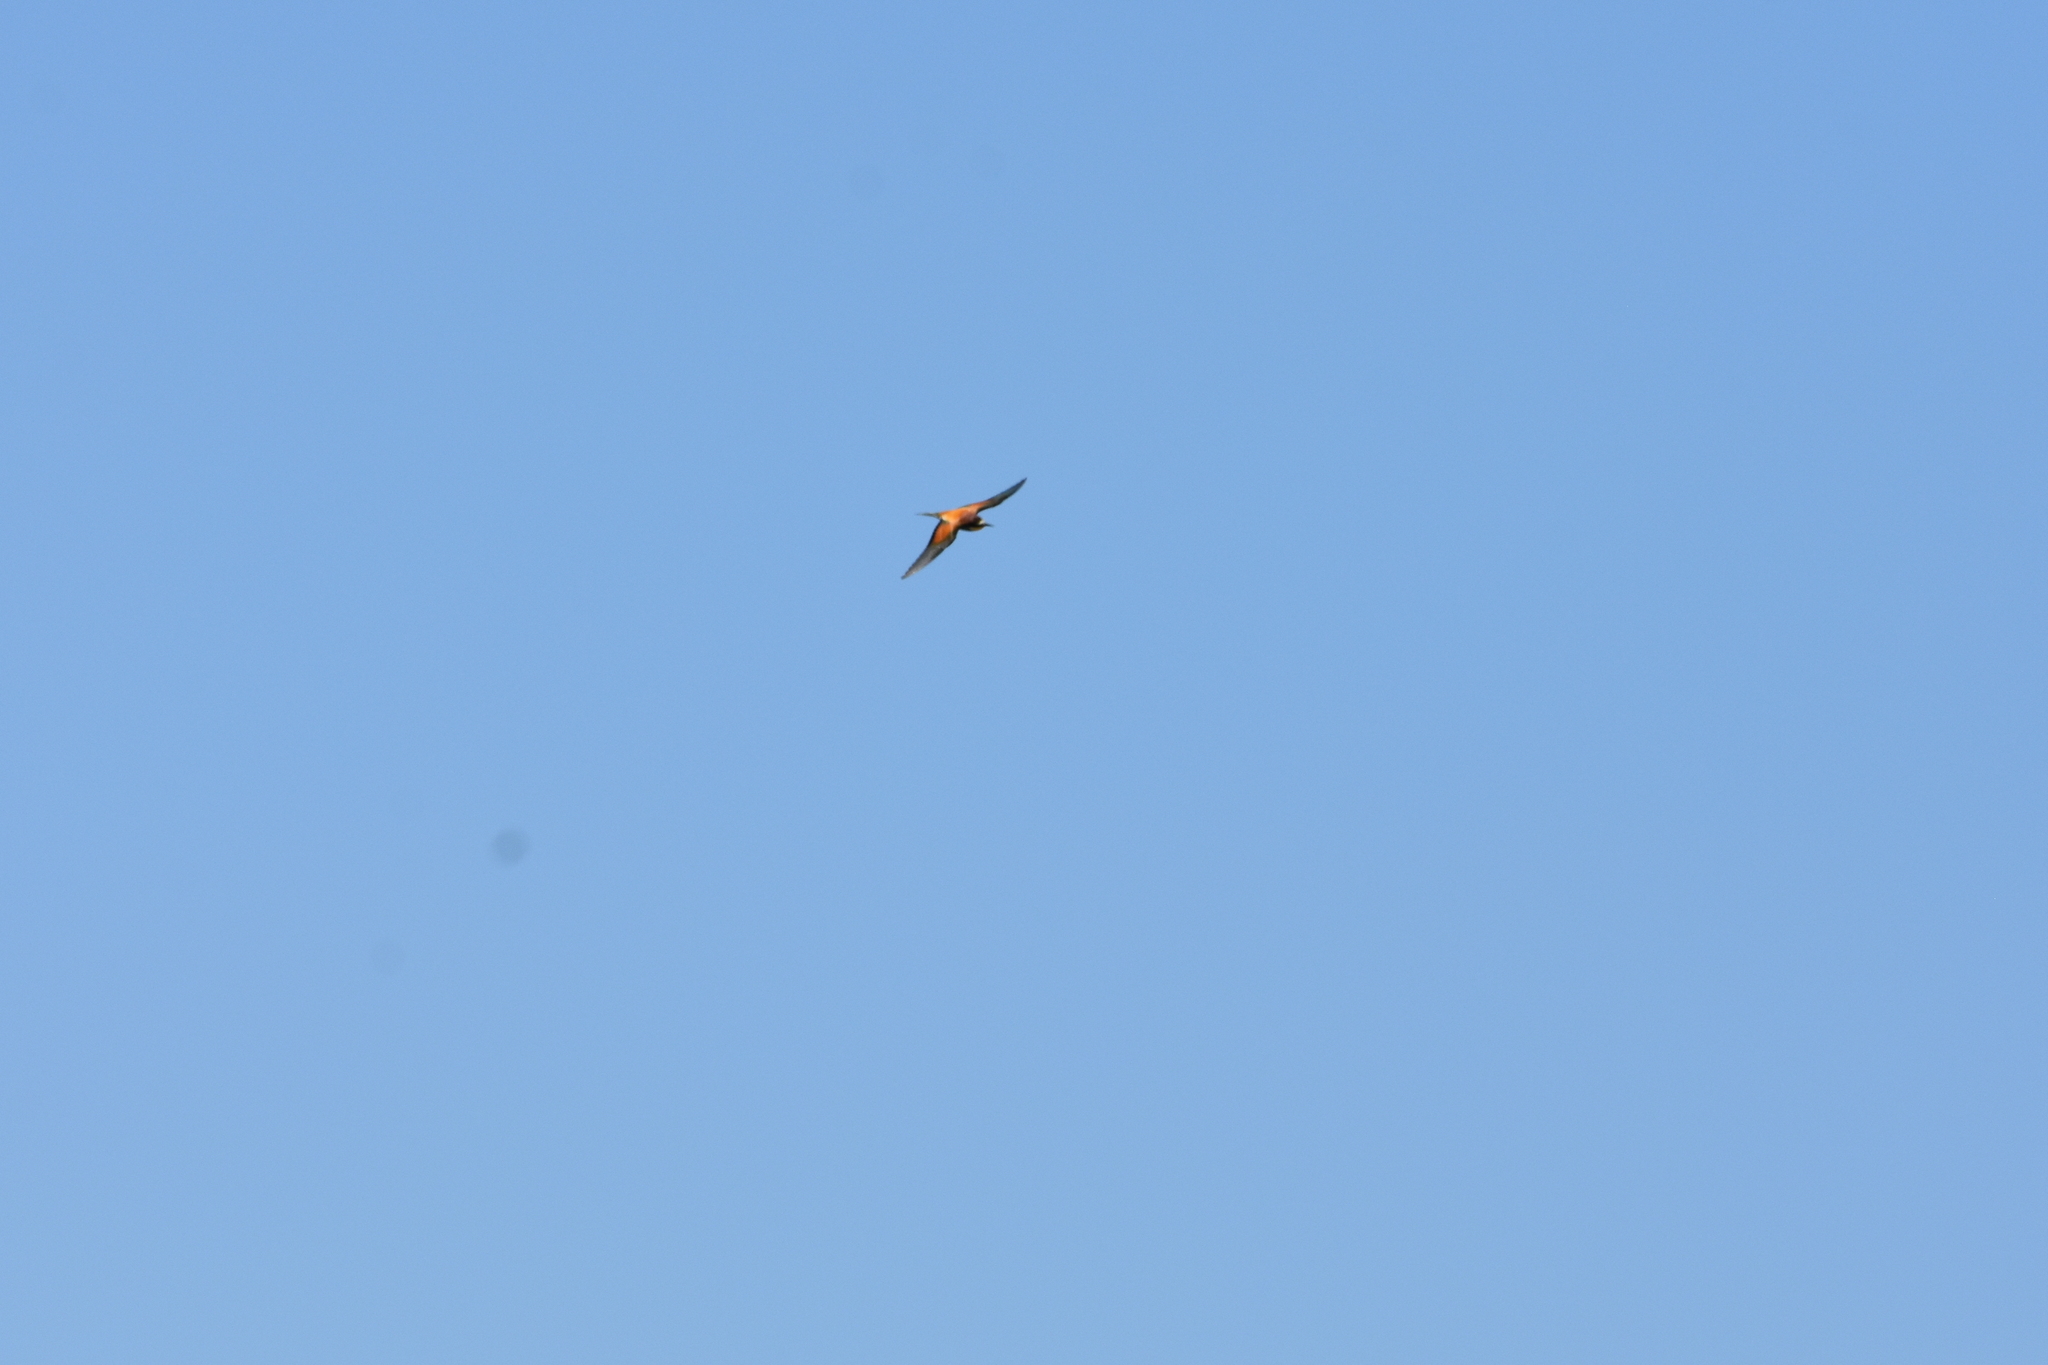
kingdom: Animalia
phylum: Chordata
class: Aves
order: Coraciiformes
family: Meropidae
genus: Merops
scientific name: Merops apiaster
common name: European bee-eater
